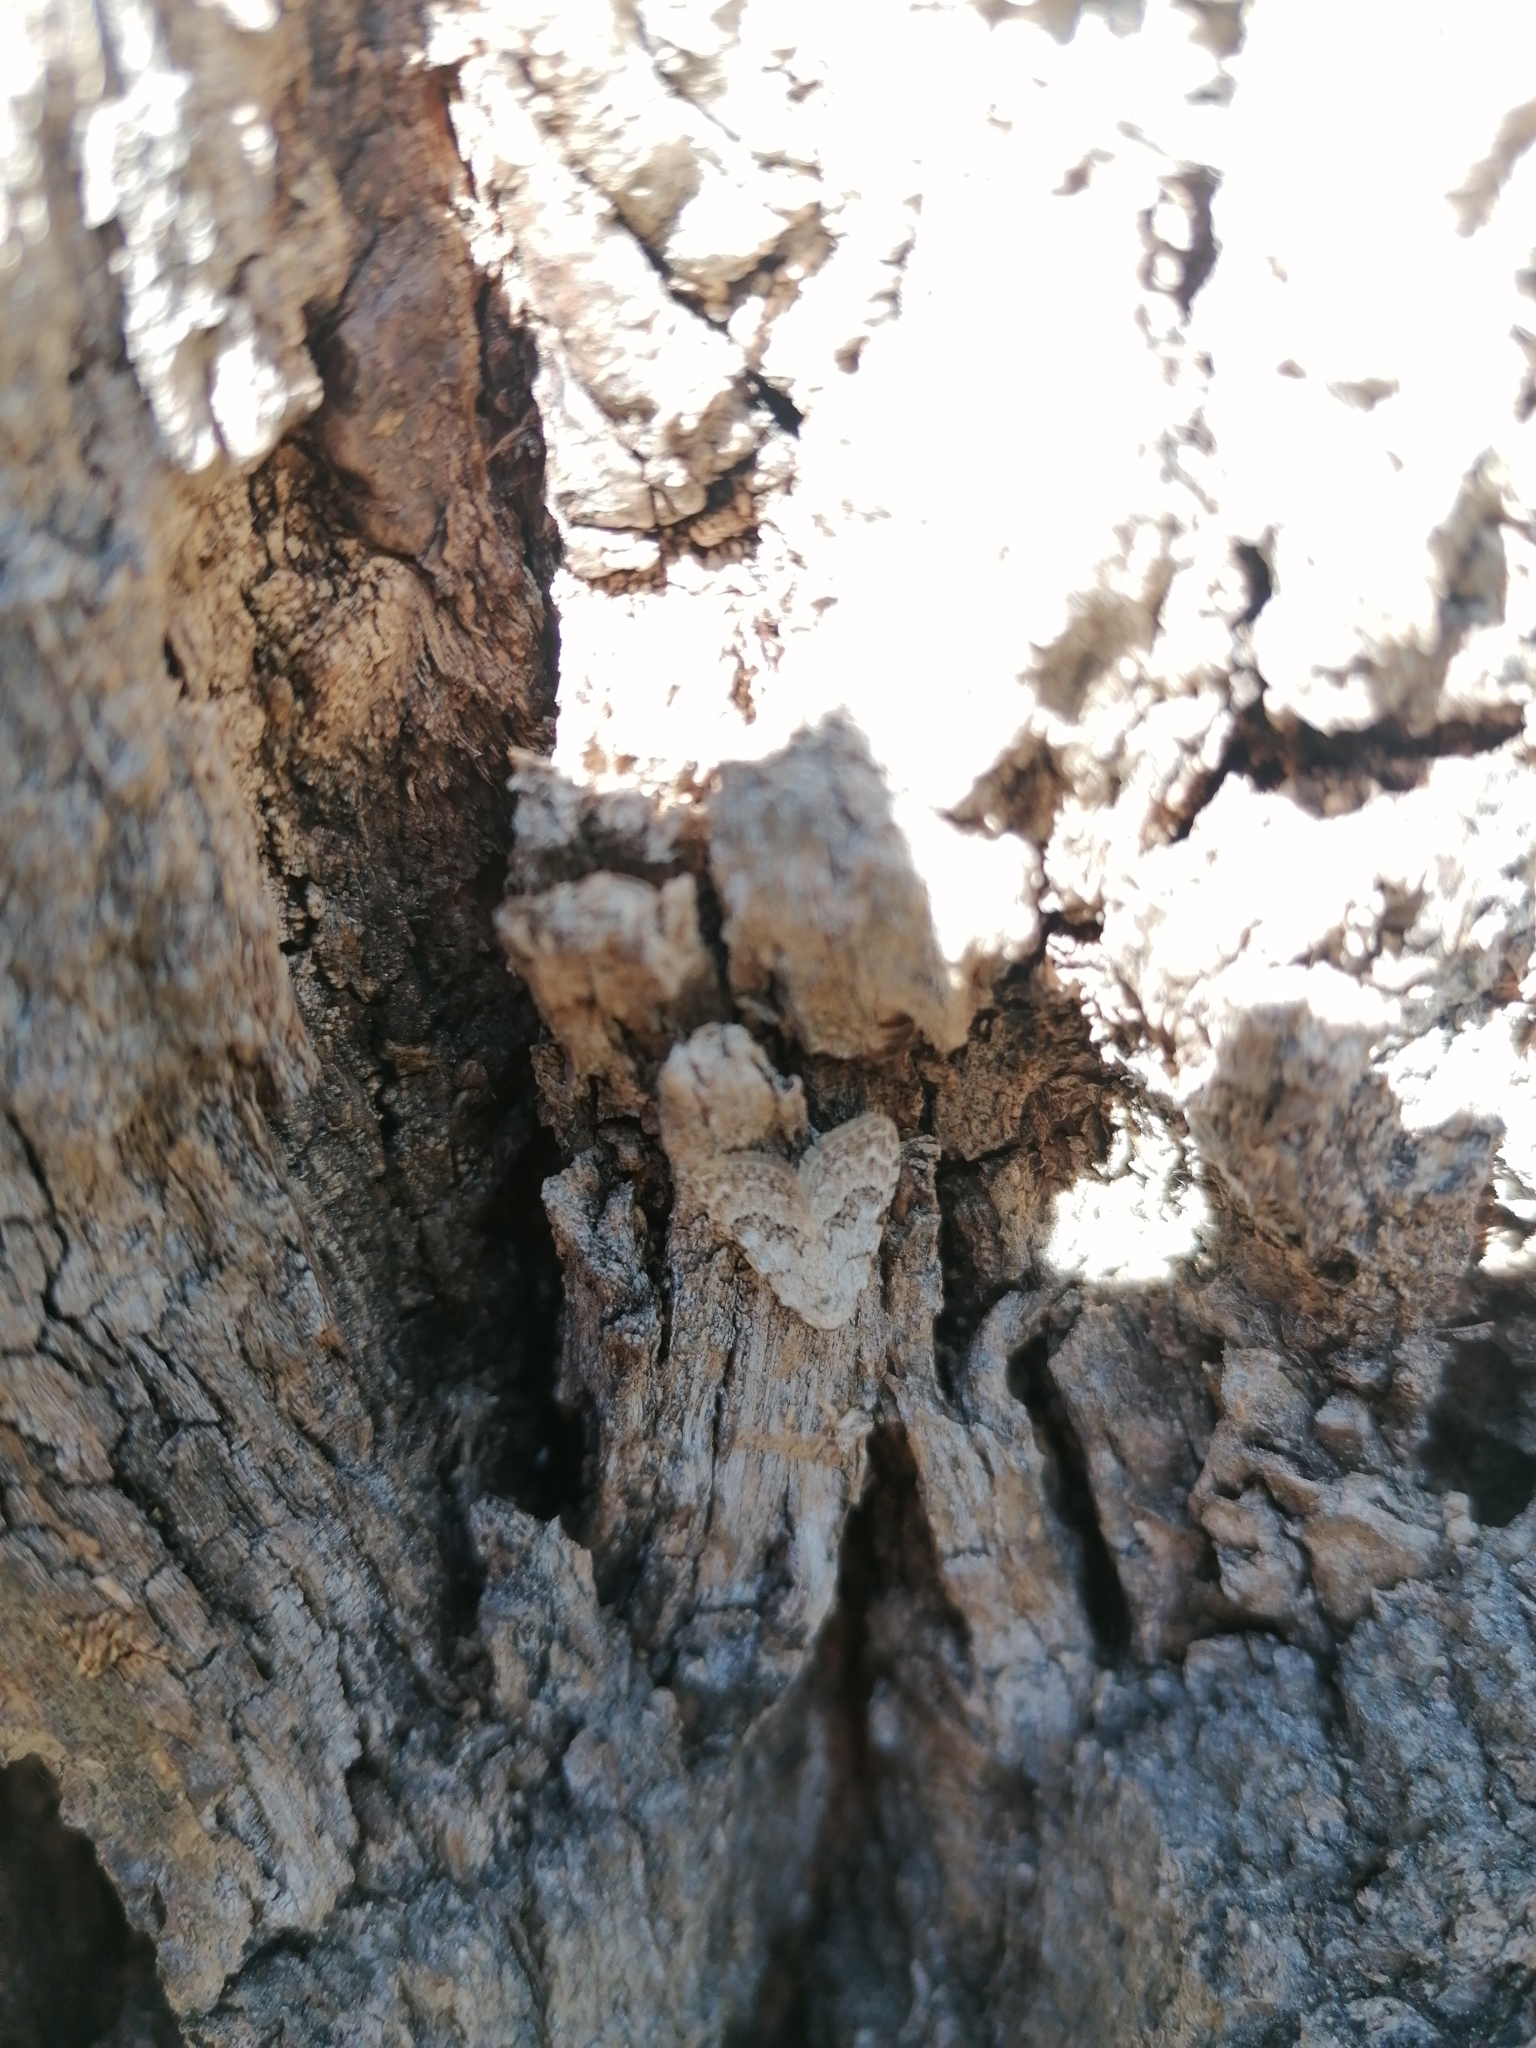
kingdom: Animalia
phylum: Arthropoda
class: Insecta
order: Lepidoptera
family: Nolidae
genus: Nola
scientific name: Nola confusalis
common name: Least black arches
